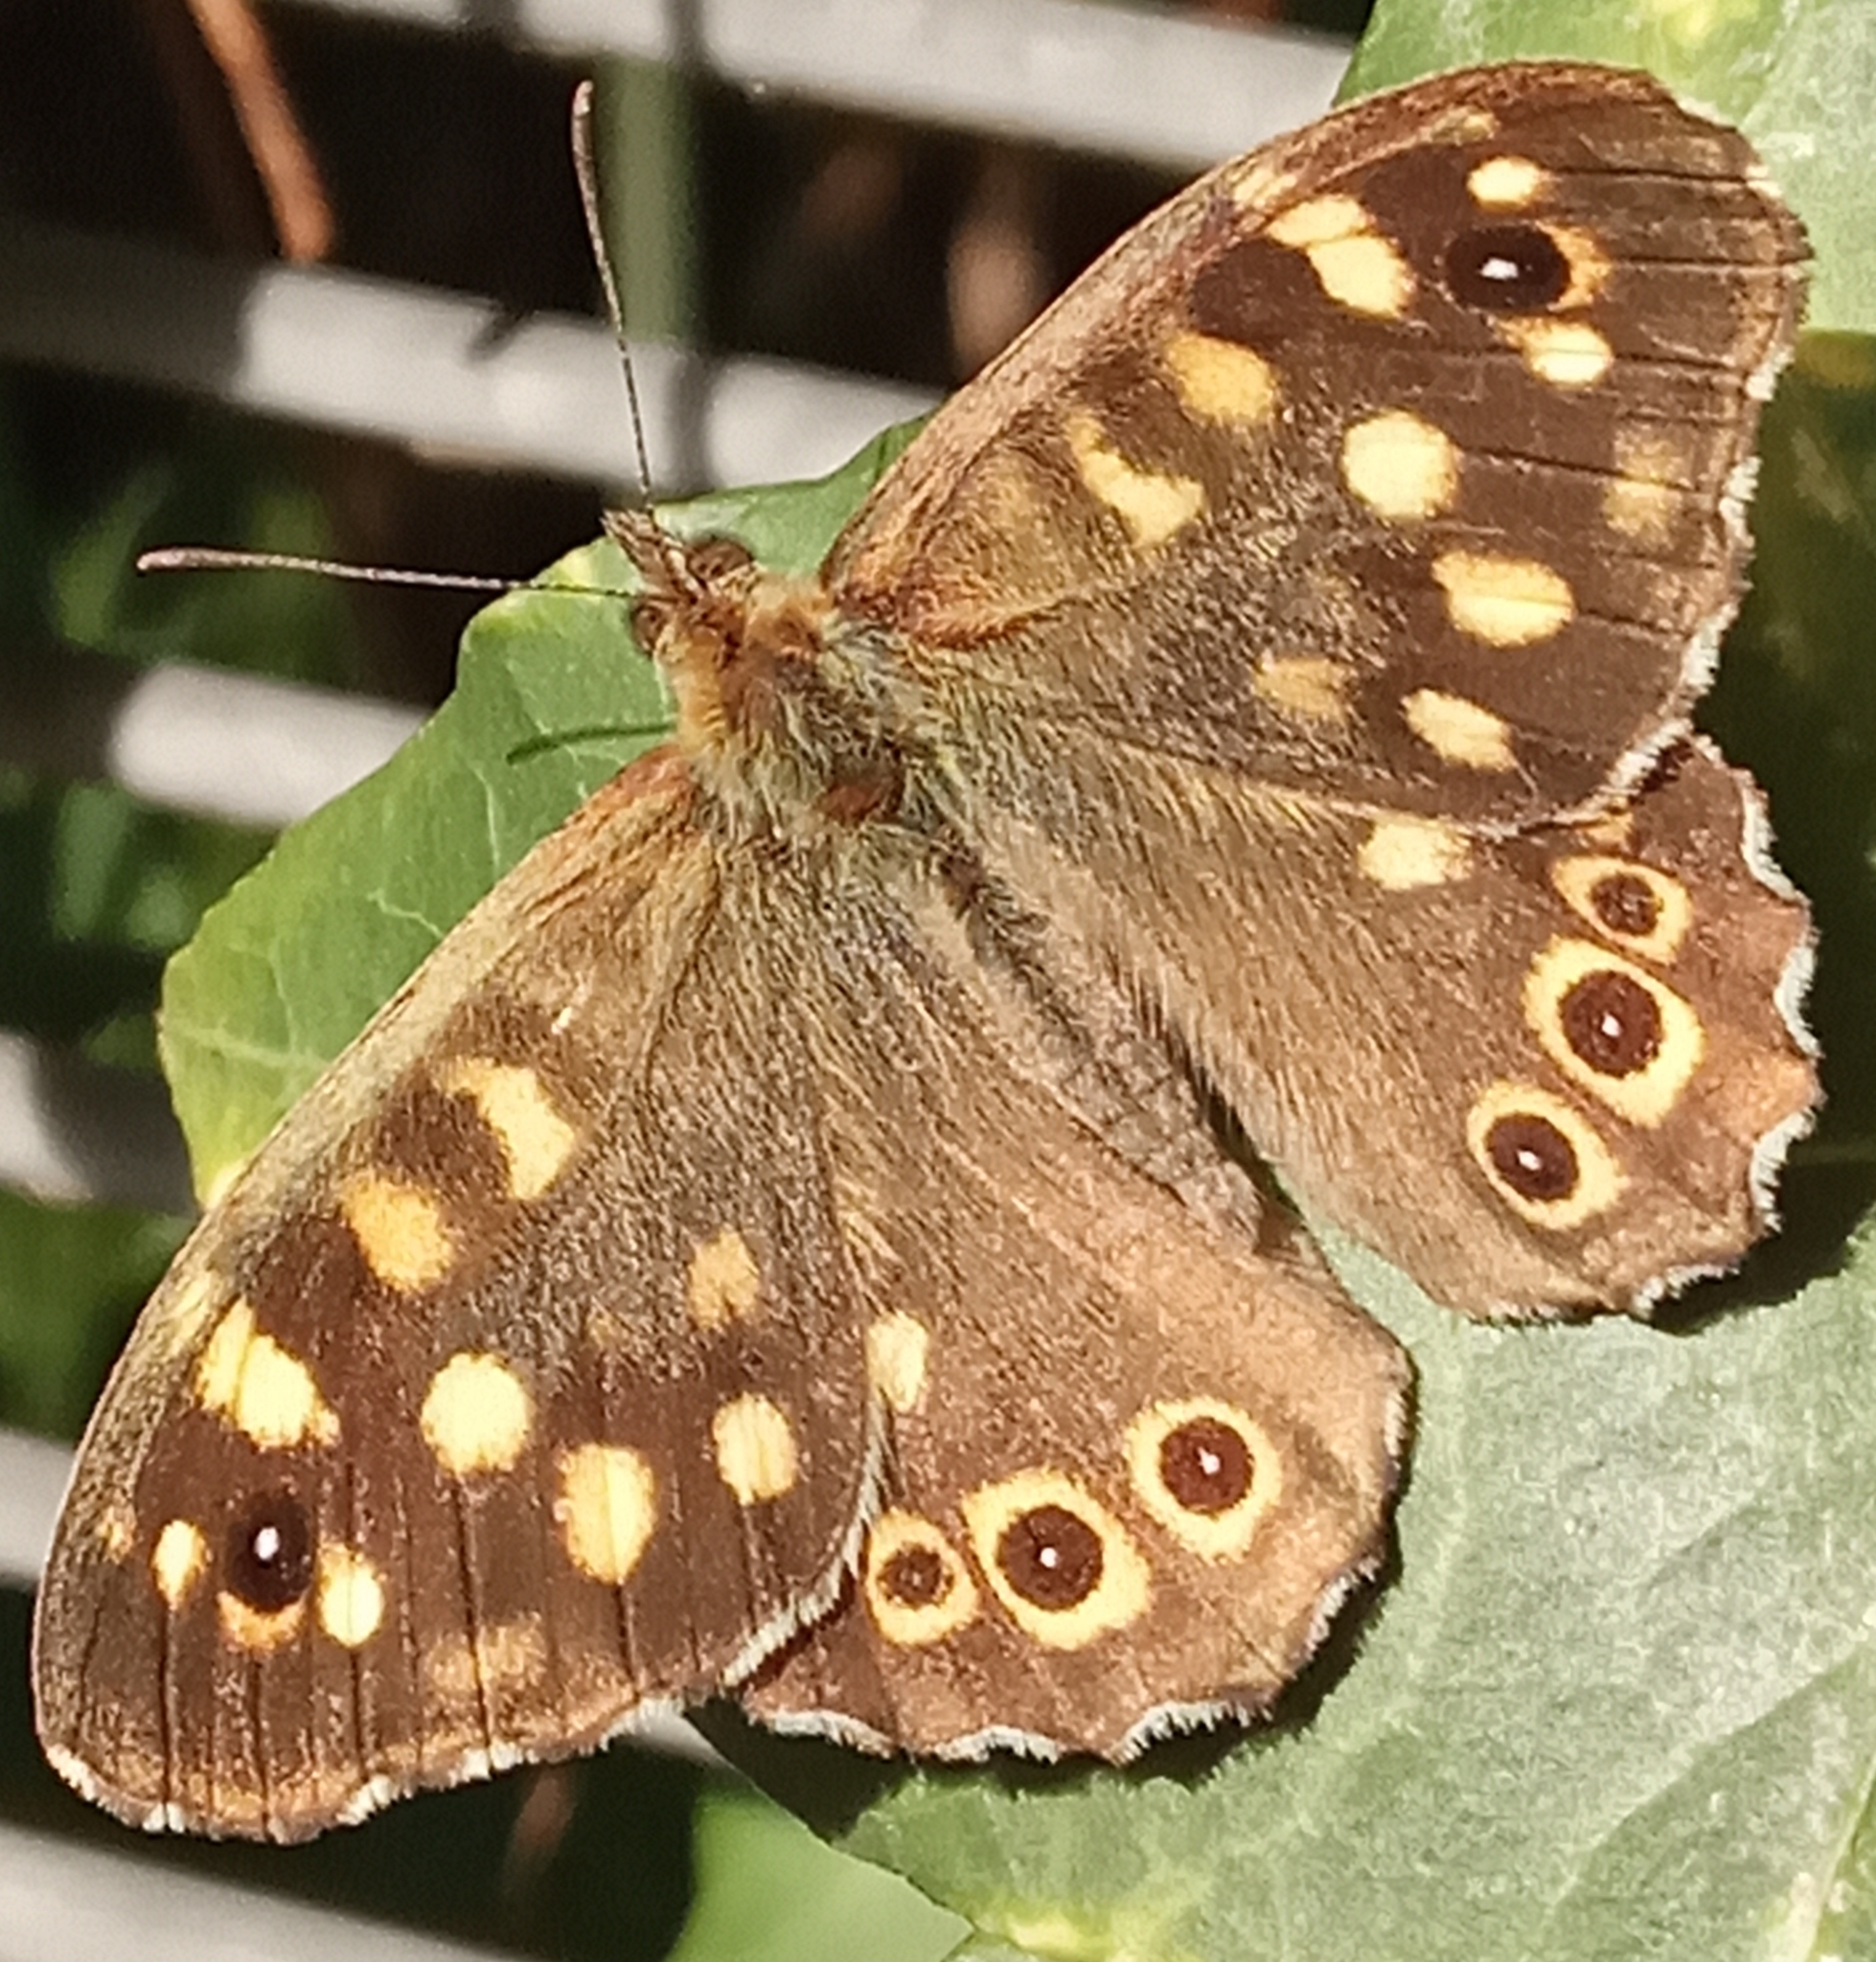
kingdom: Animalia
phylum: Arthropoda
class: Insecta
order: Lepidoptera
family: Nymphalidae
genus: Pararge
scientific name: Pararge aegeria
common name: Speckled wood
